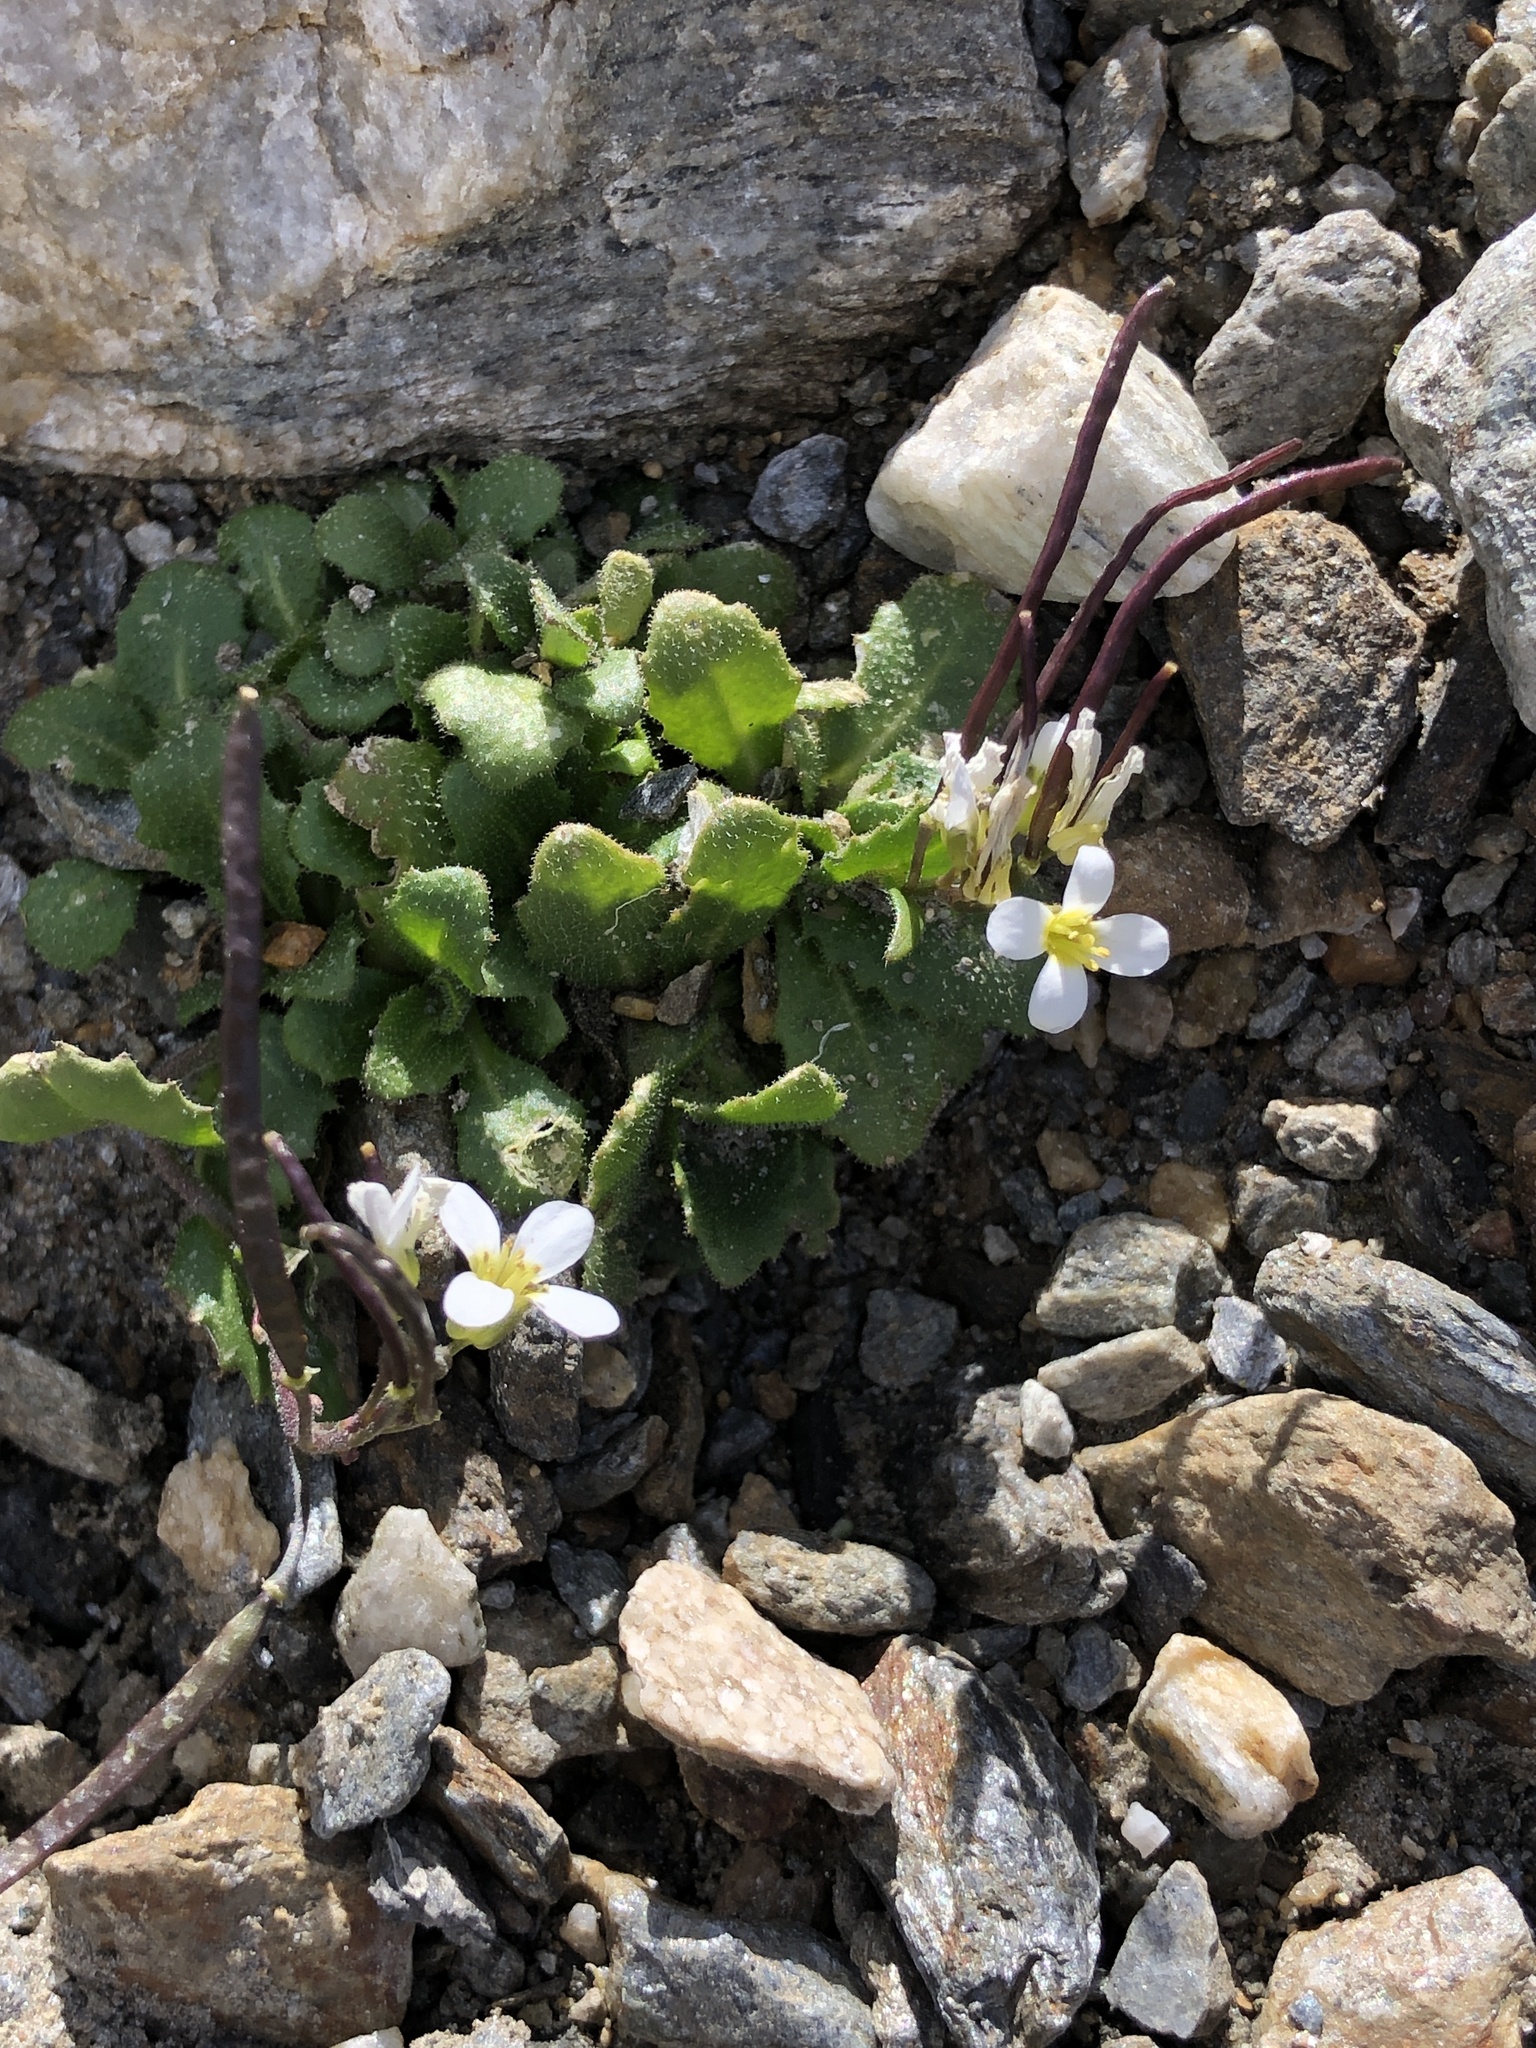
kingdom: Plantae
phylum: Tracheophyta
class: Magnoliopsida
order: Brassicales
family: Brassicaceae
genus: Arabis
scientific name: Arabis alpina
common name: Alpine rock-cress
